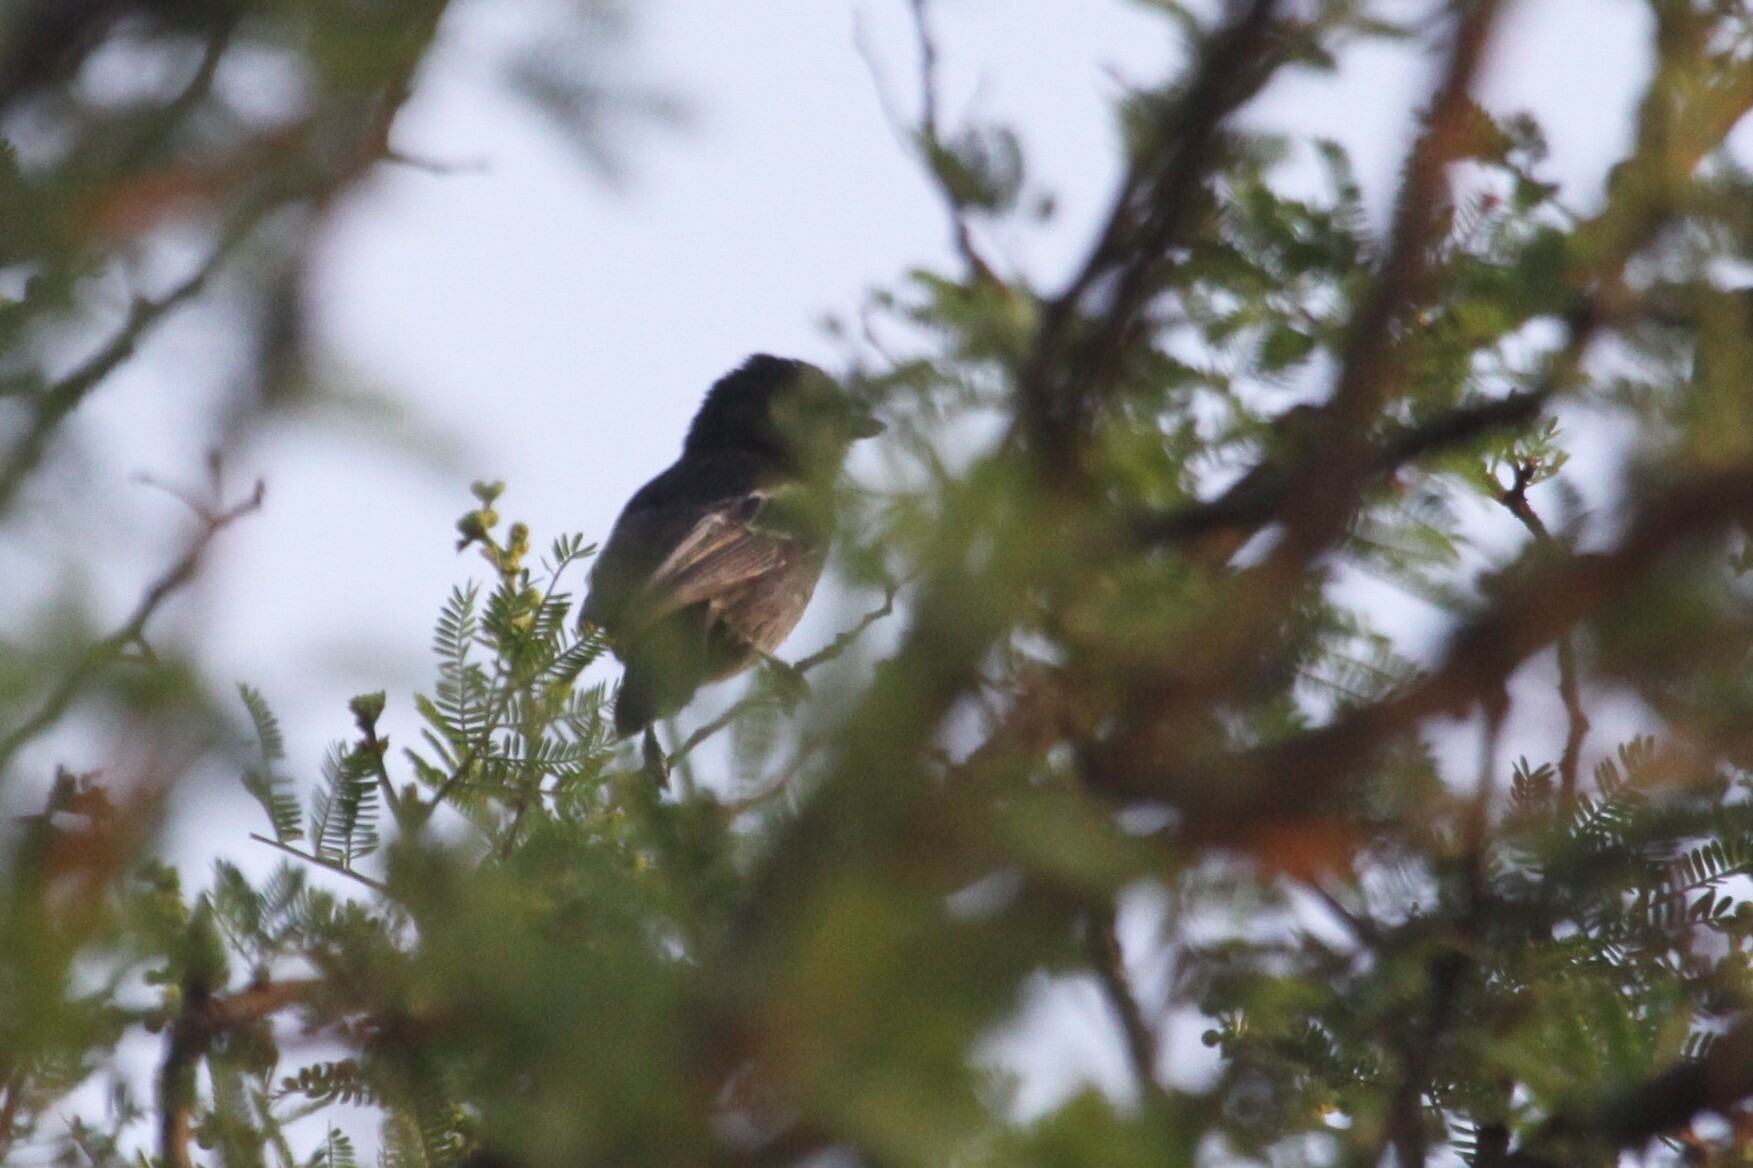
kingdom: Animalia
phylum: Chordata
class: Aves
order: Passeriformes
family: Paridae
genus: Parus
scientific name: Parus niger
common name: Southern black tit
